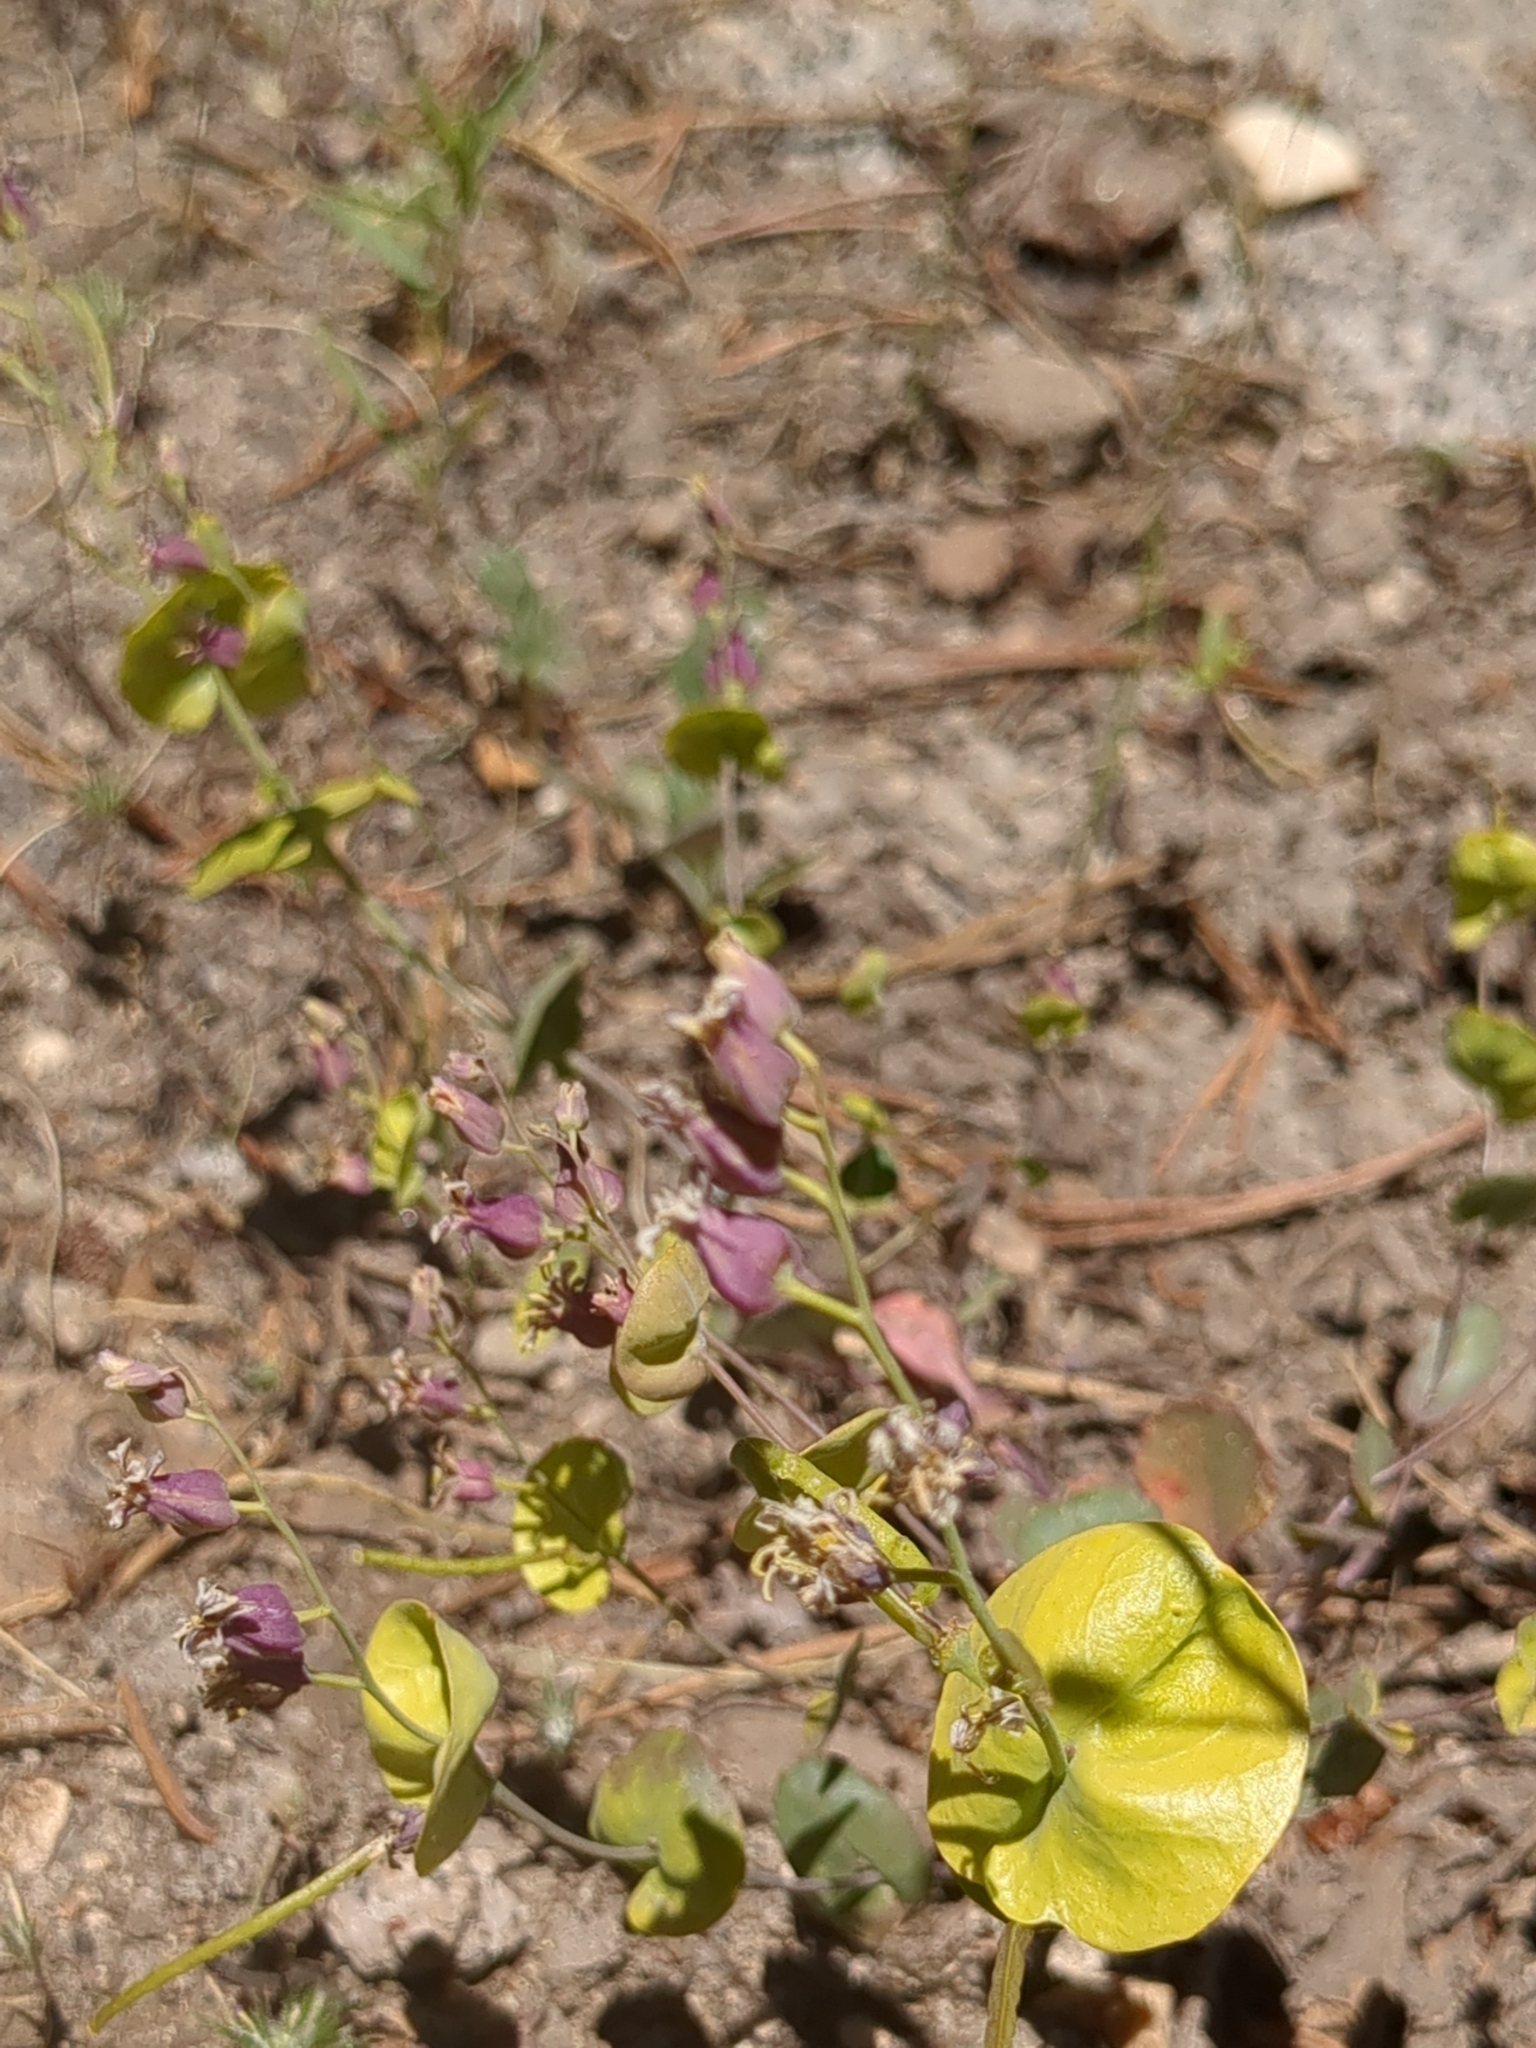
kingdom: Plantae
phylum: Tracheophyta
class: Magnoliopsida
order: Brassicales
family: Brassicaceae
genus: Streptanthus
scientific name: Streptanthus tortuosus
